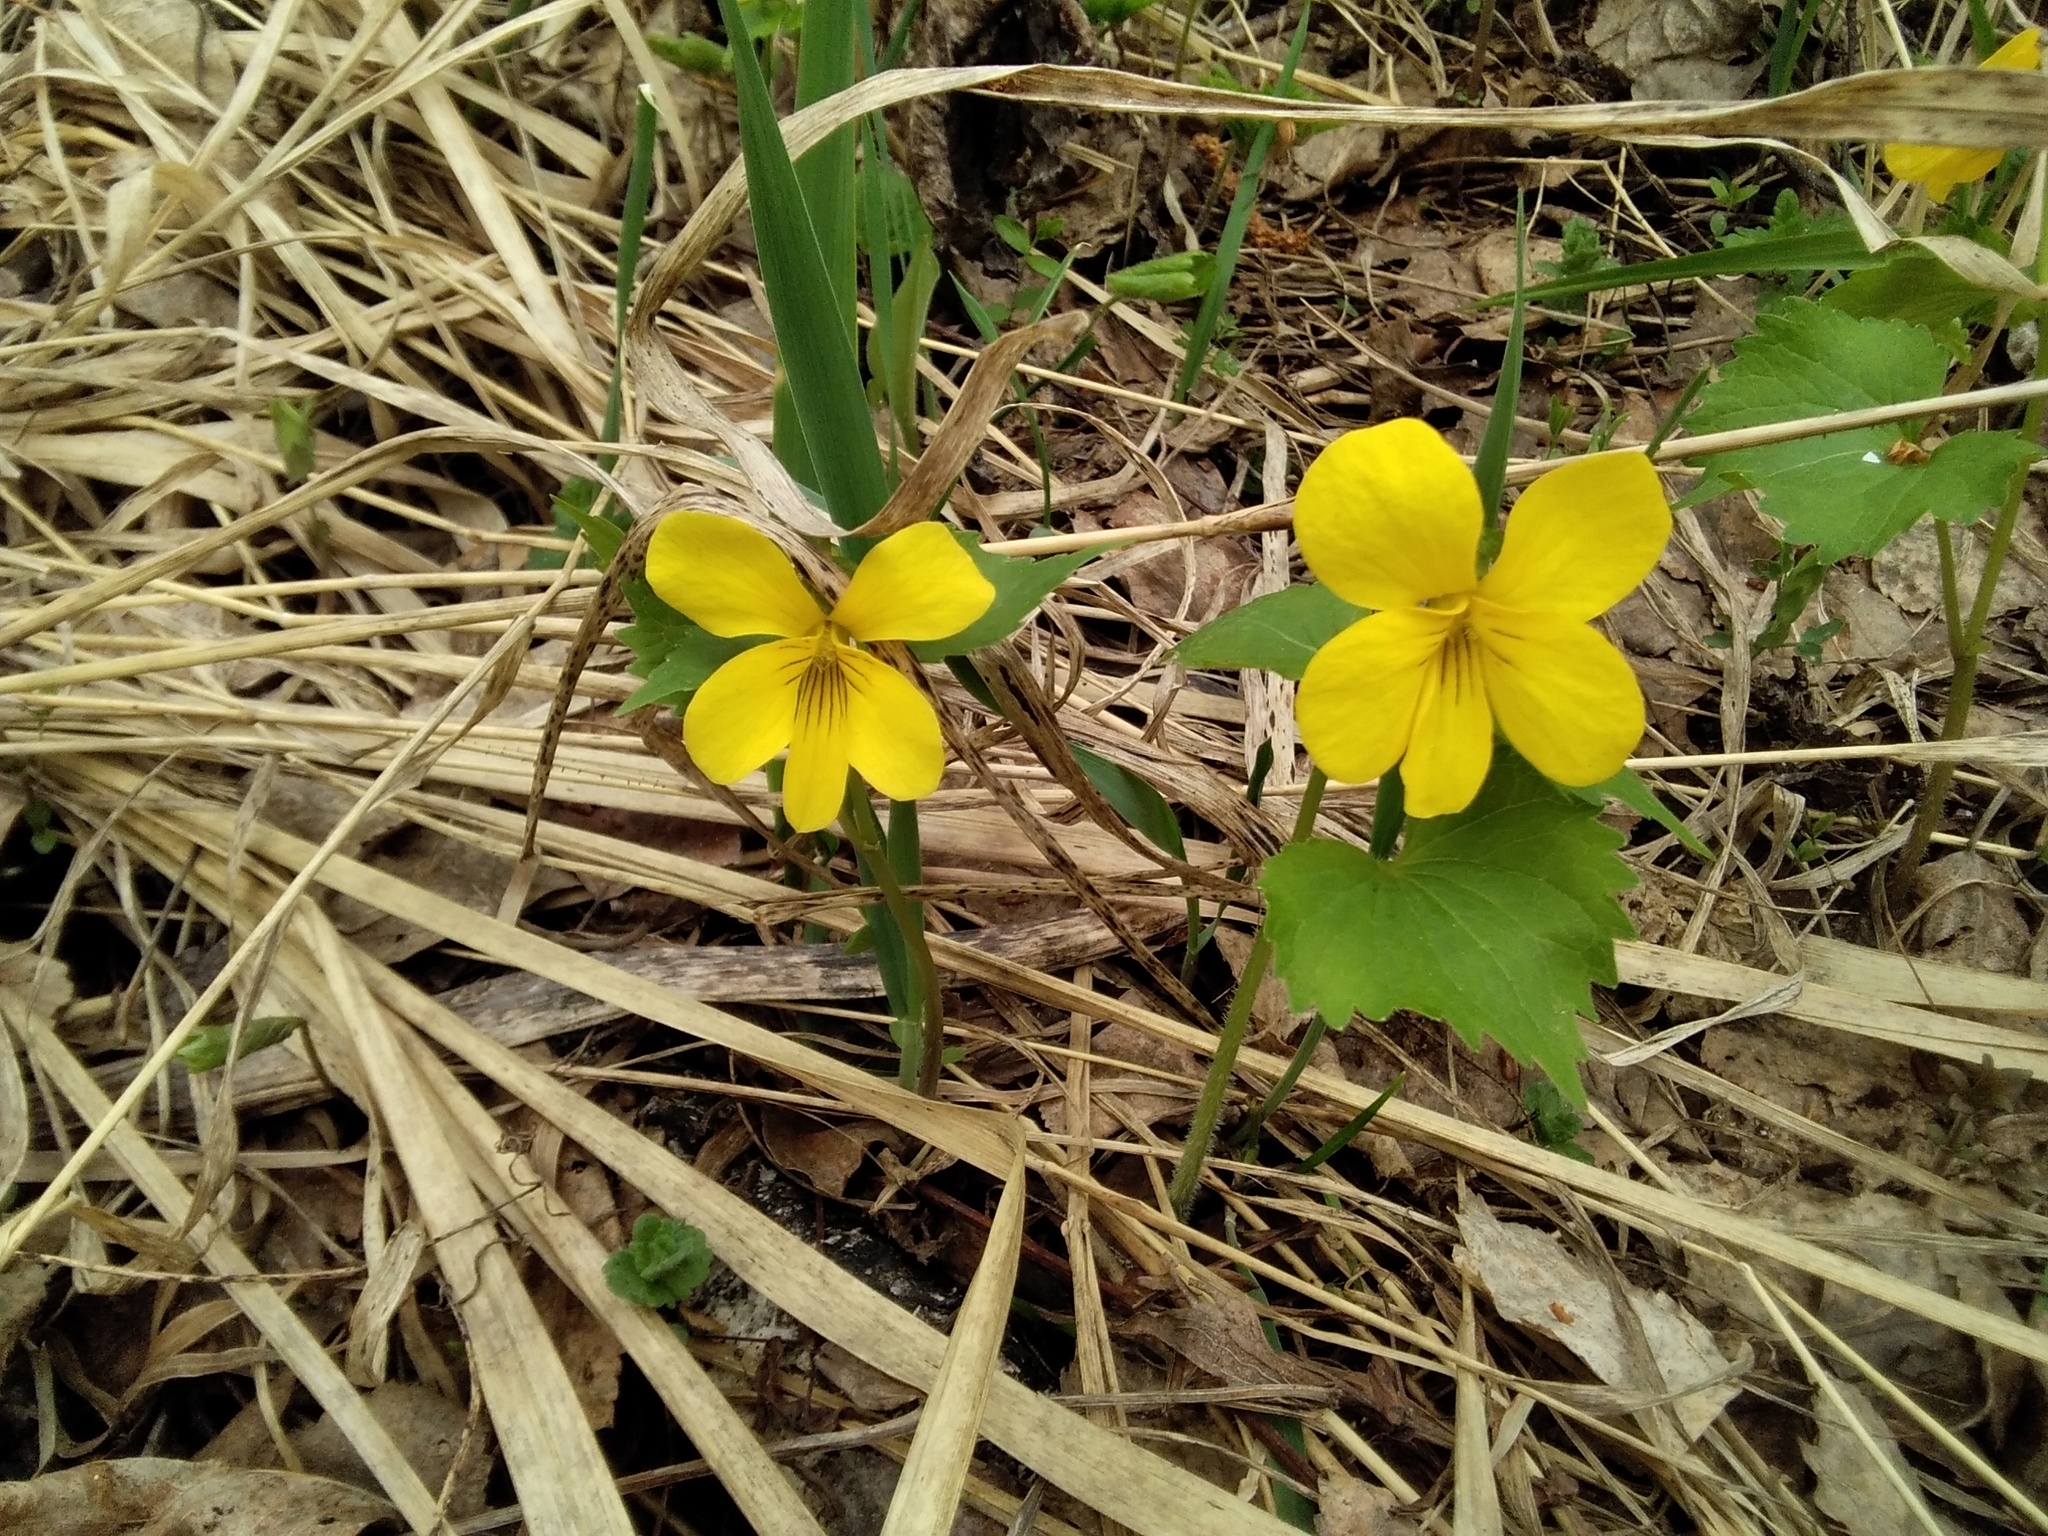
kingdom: Plantae
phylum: Tracheophyta
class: Magnoliopsida
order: Malpighiales
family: Violaceae
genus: Viola
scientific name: Viola uniflora
